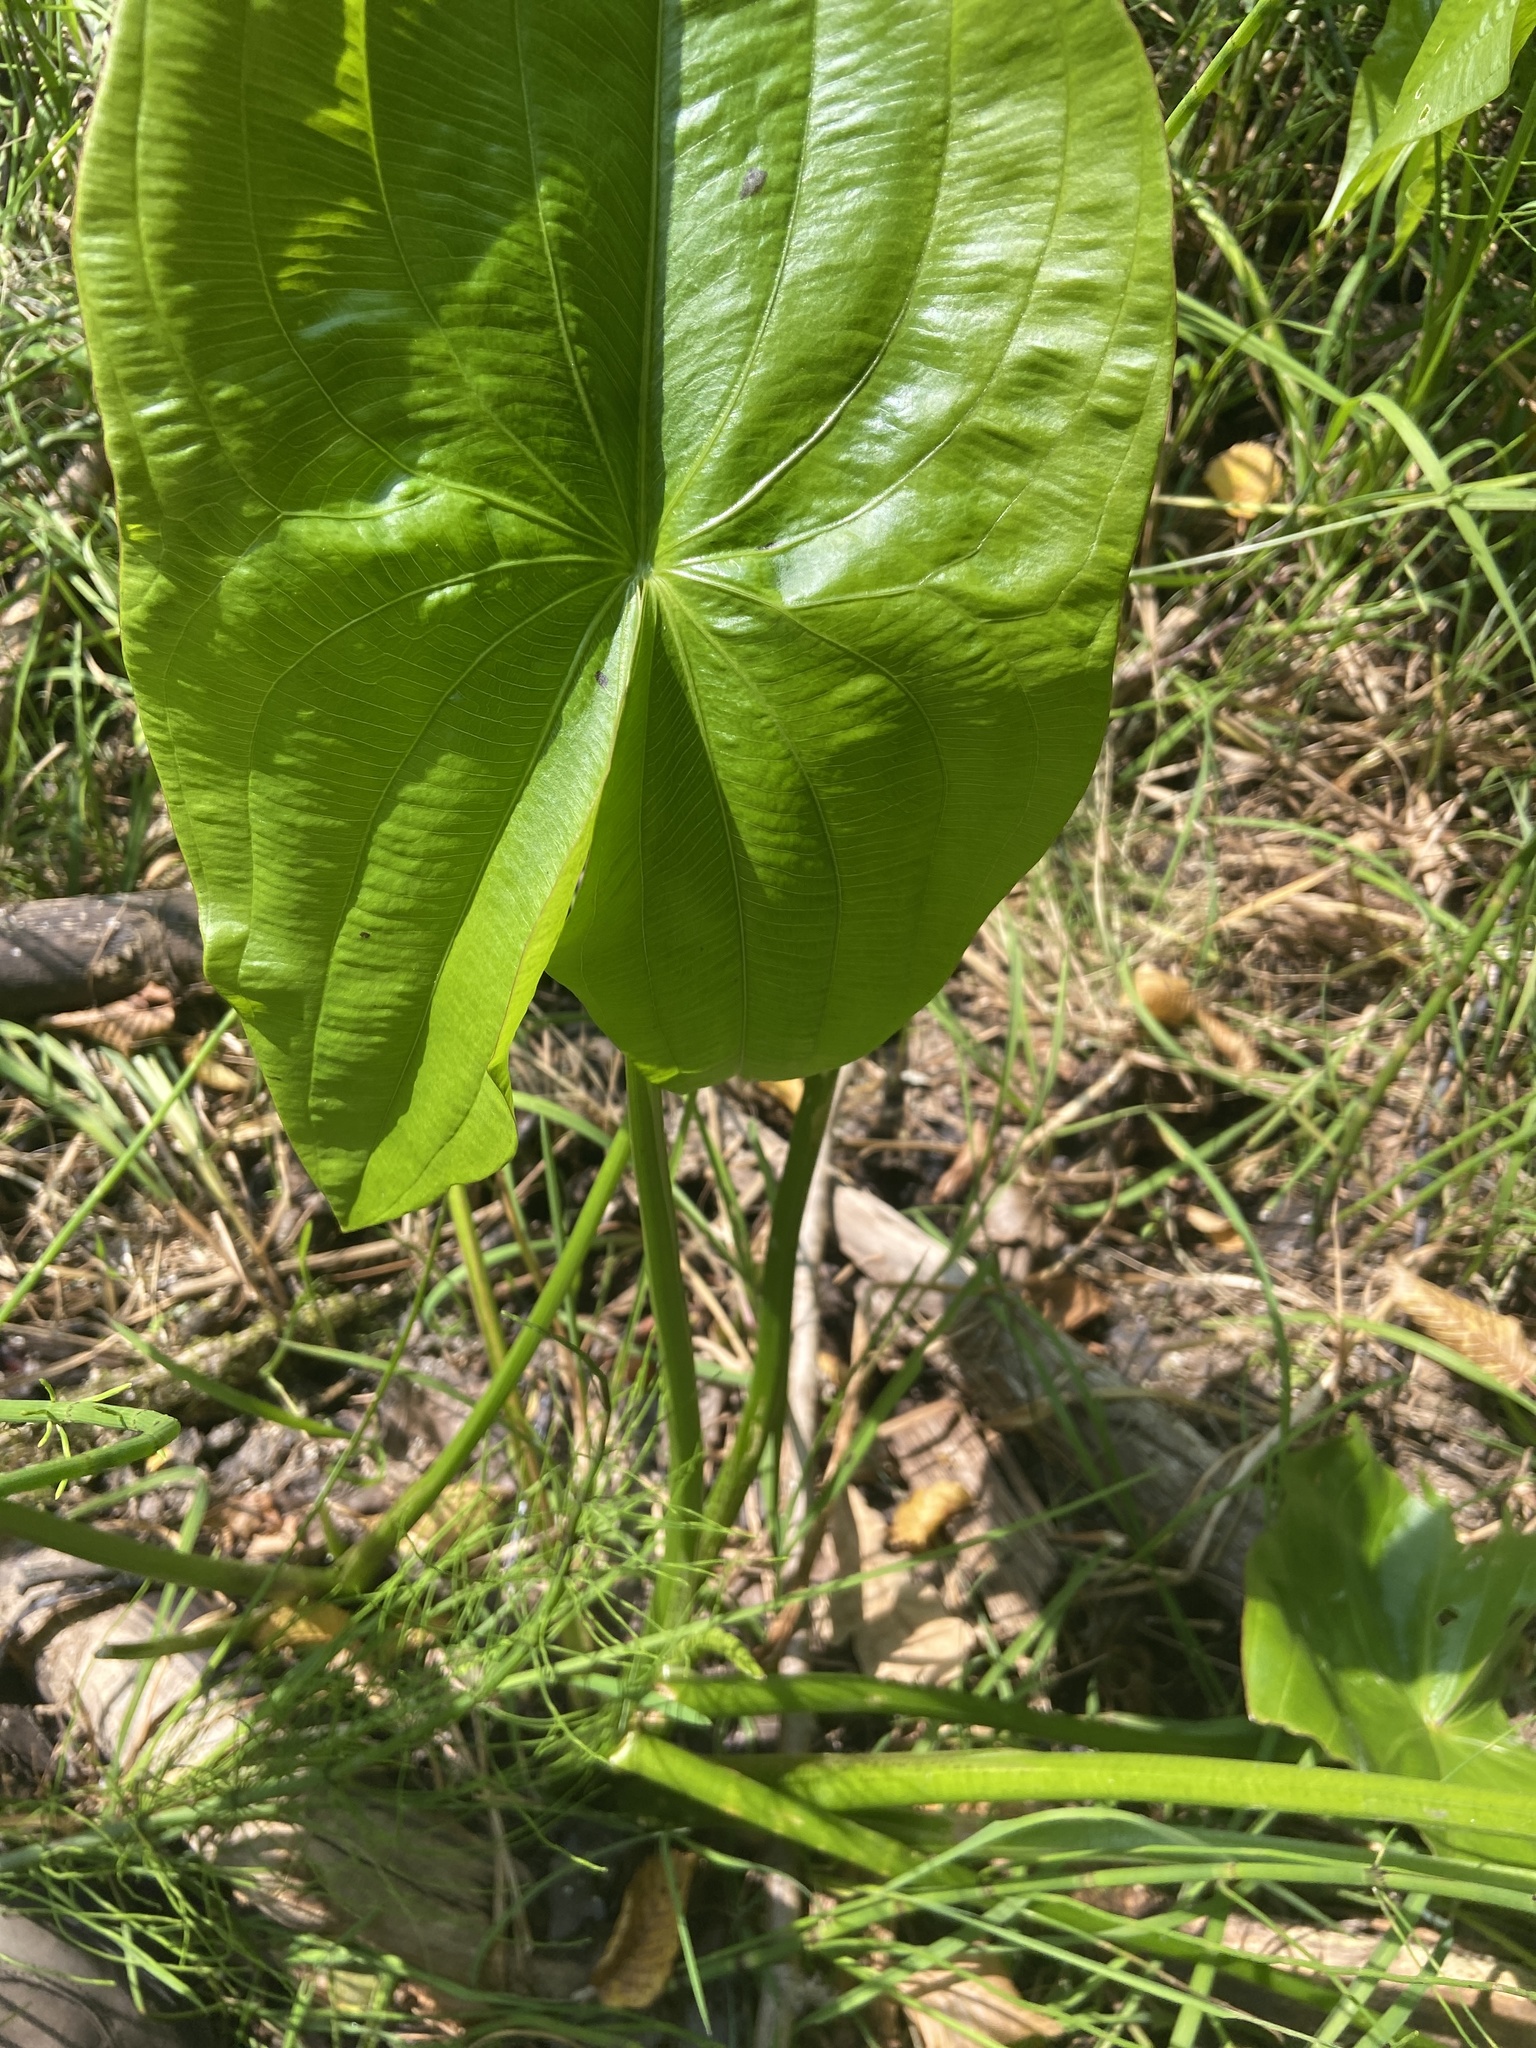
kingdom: Plantae
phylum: Tracheophyta
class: Liliopsida
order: Alismatales
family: Alismataceae
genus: Sagittaria
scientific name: Sagittaria latifolia
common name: Duck-potato
